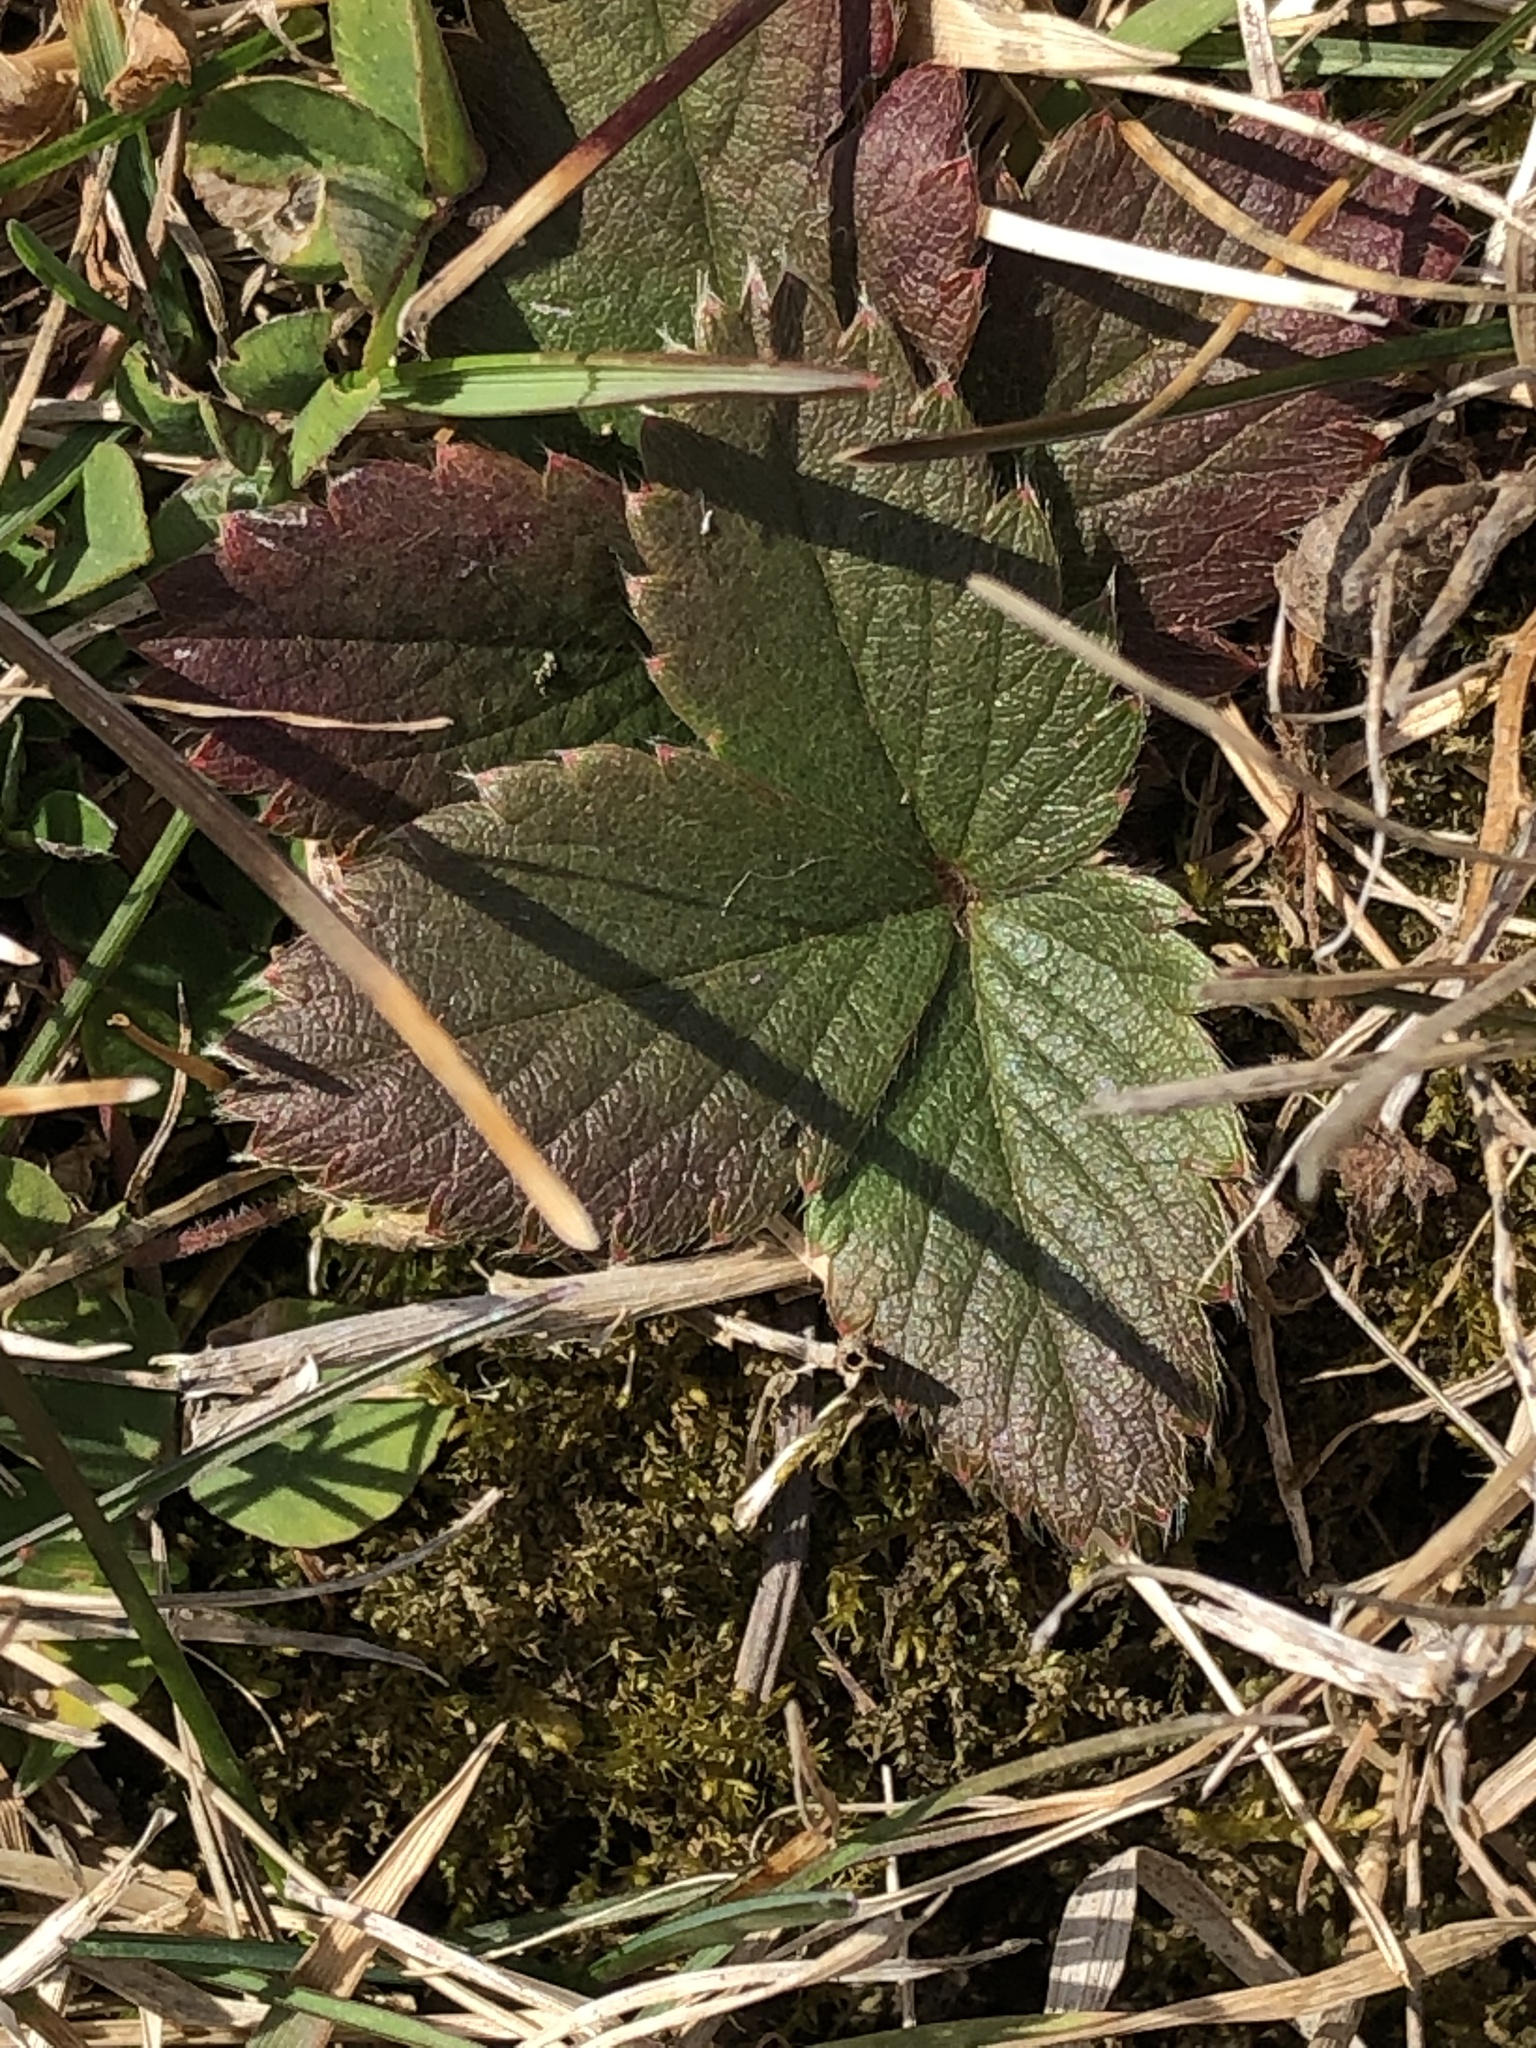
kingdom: Plantae
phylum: Tracheophyta
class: Magnoliopsida
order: Rosales
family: Rosaceae
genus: Fragaria
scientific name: Fragaria virginiana
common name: Thickleaved wild strawberry
